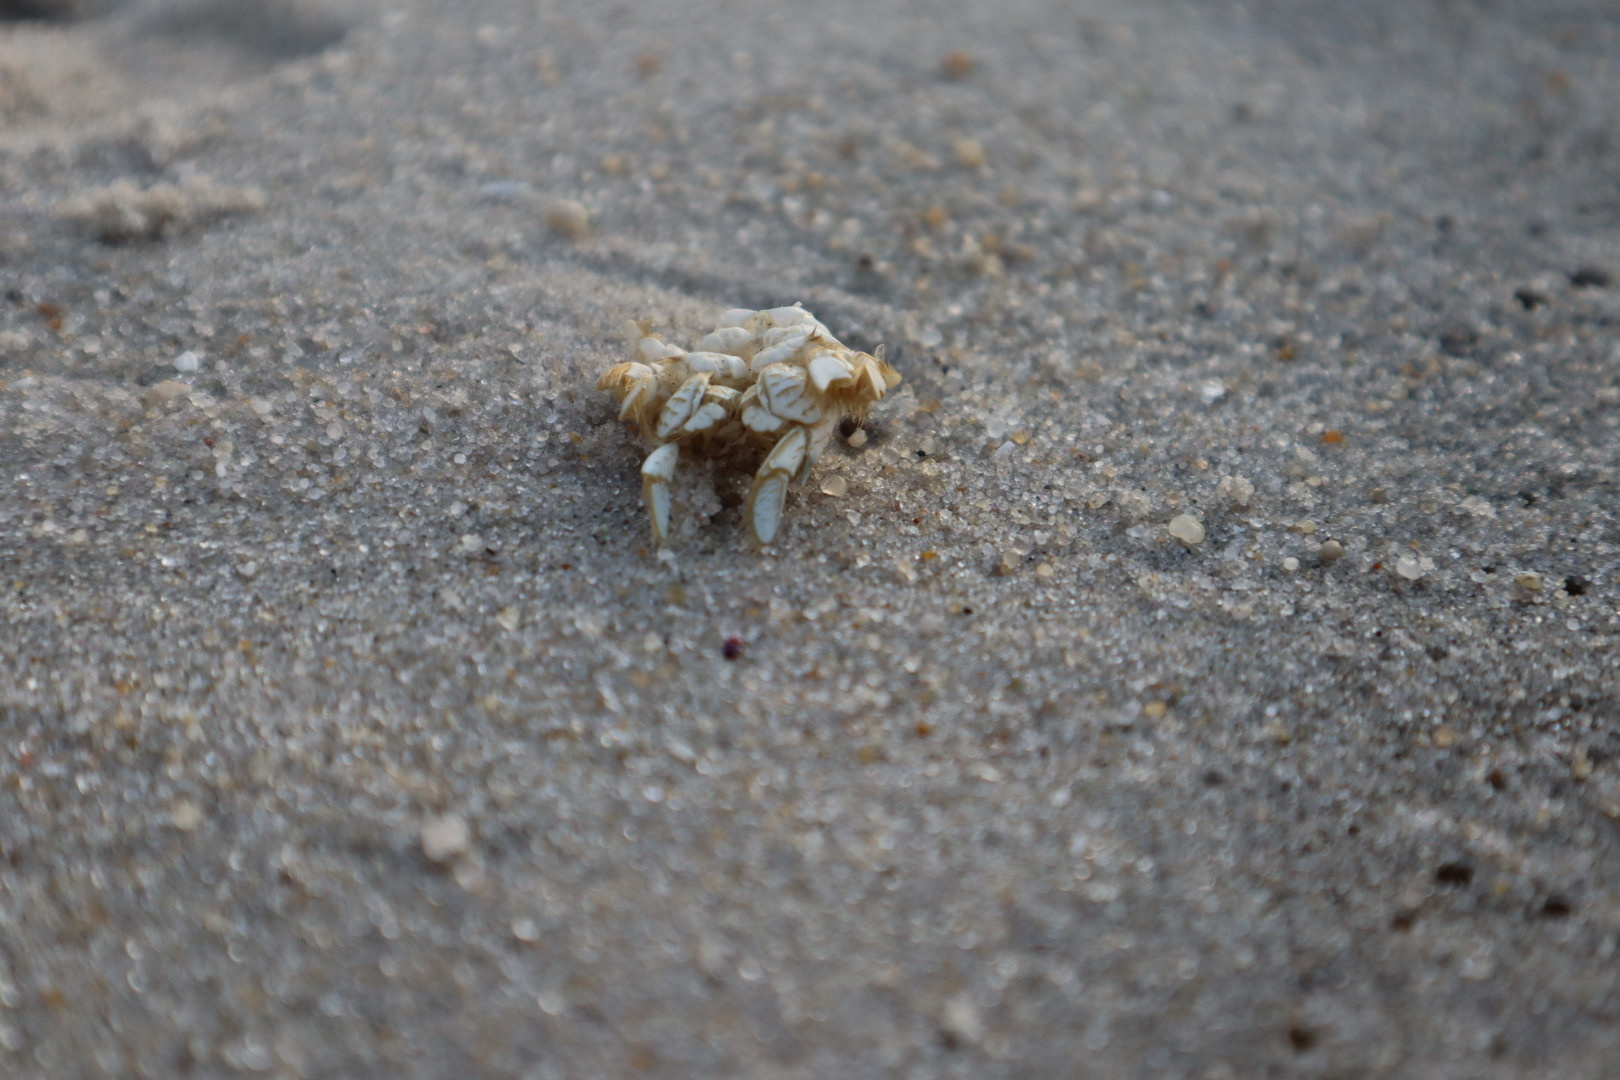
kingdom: Animalia
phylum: Arthropoda
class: Malacostraca
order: Decapoda
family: Hippidae
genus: Emerita
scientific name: Emerita talpoida
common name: Atlantic sand crab
